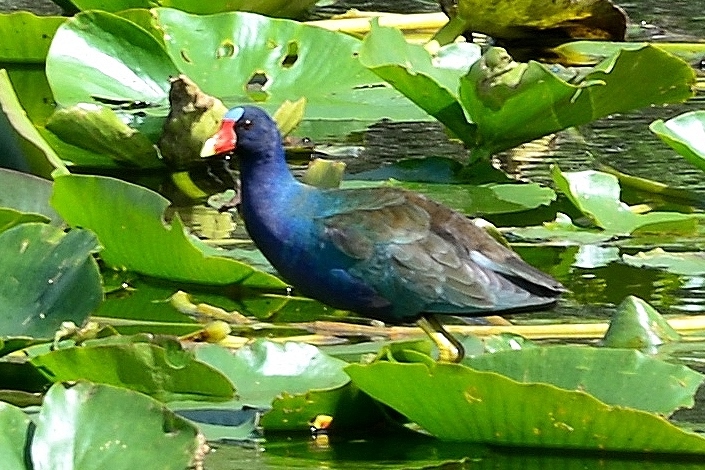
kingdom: Animalia
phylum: Chordata
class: Aves
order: Gruiformes
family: Rallidae
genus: Porphyrio
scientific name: Porphyrio martinica
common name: Purple gallinule
